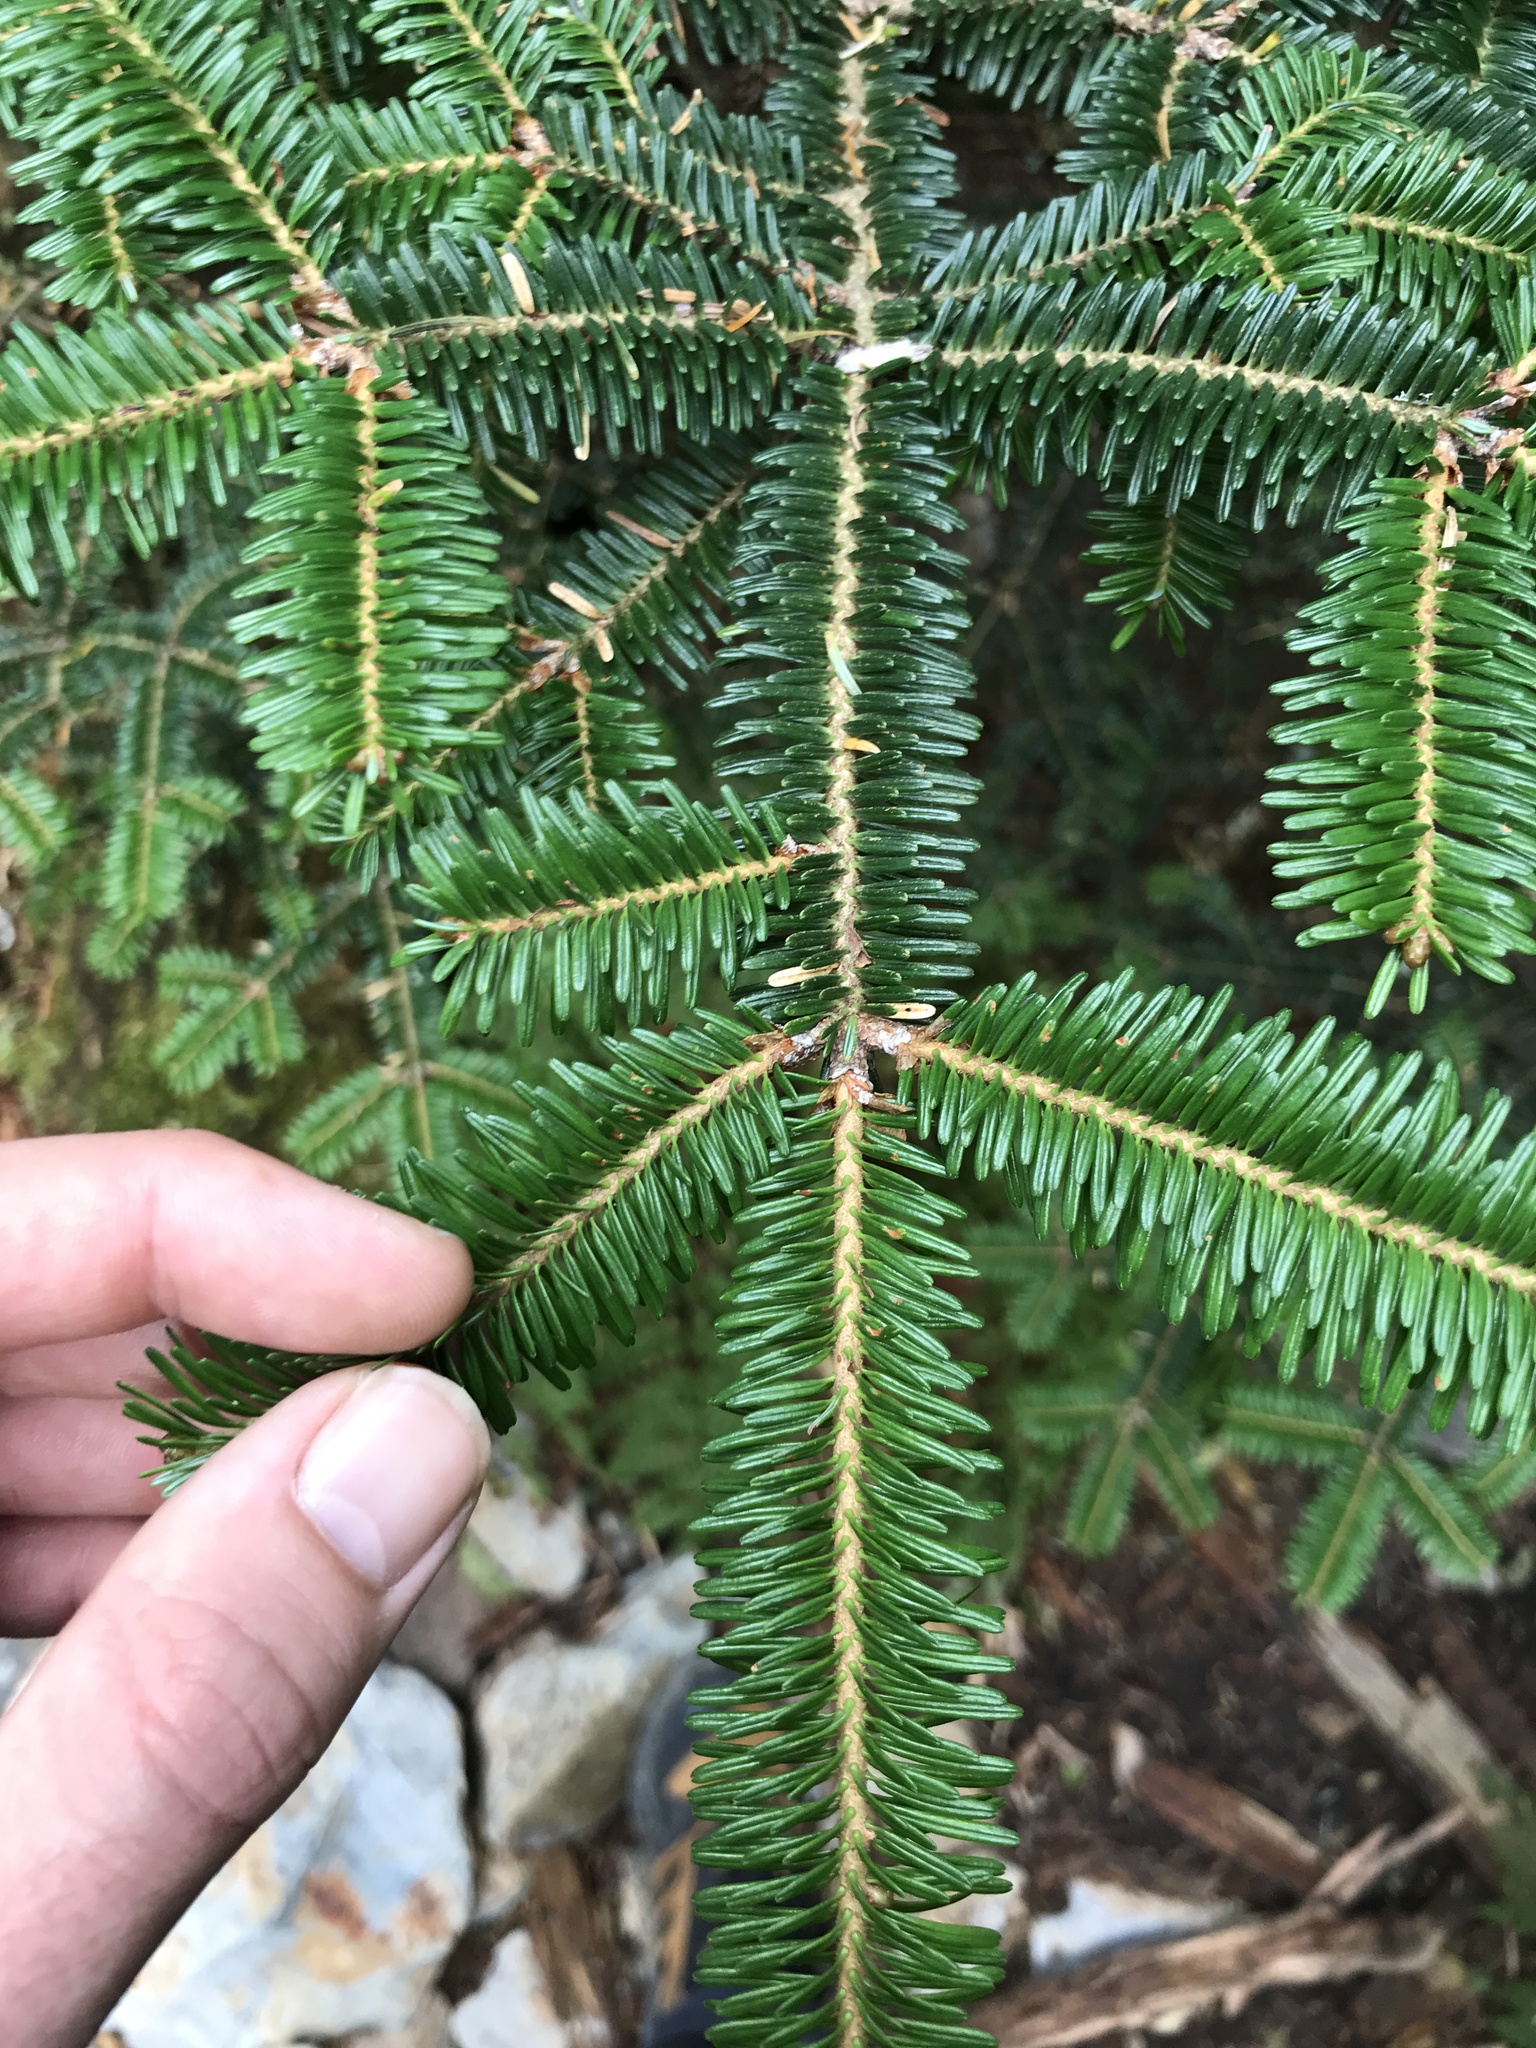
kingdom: Plantae
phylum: Tracheophyta
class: Pinopsida
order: Pinales
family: Pinaceae
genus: Abies
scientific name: Abies fraseri
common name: Fraser fir
